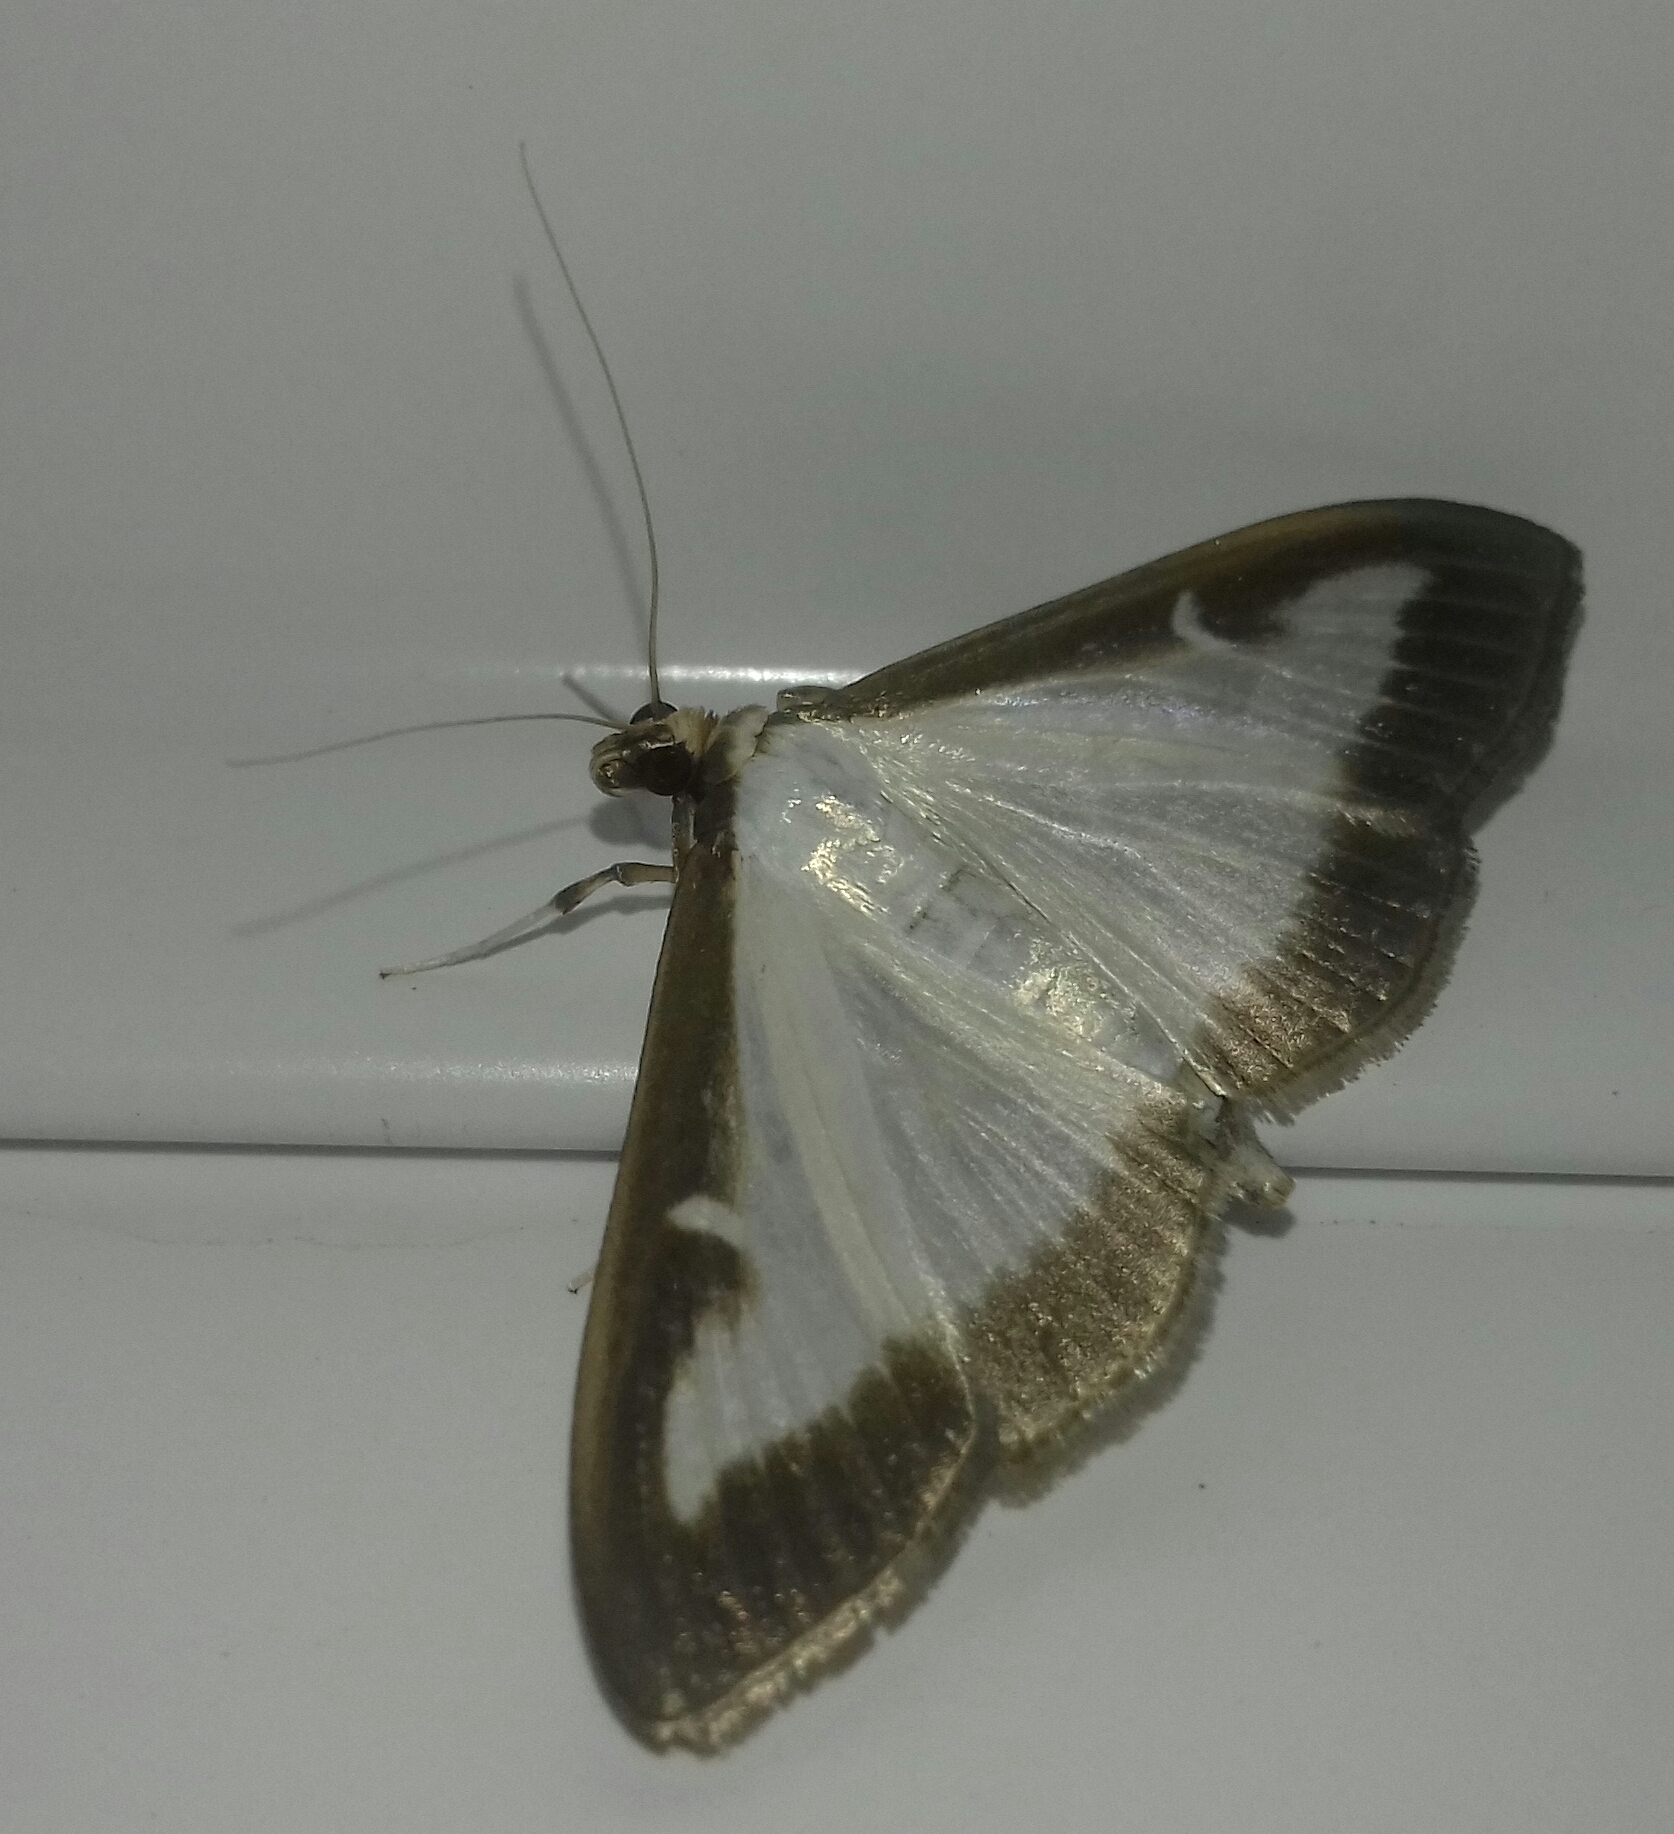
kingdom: Animalia
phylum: Arthropoda
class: Insecta
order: Lepidoptera
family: Crambidae
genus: Cydalima
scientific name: Cydalima perspectalis
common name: Box tree moth
